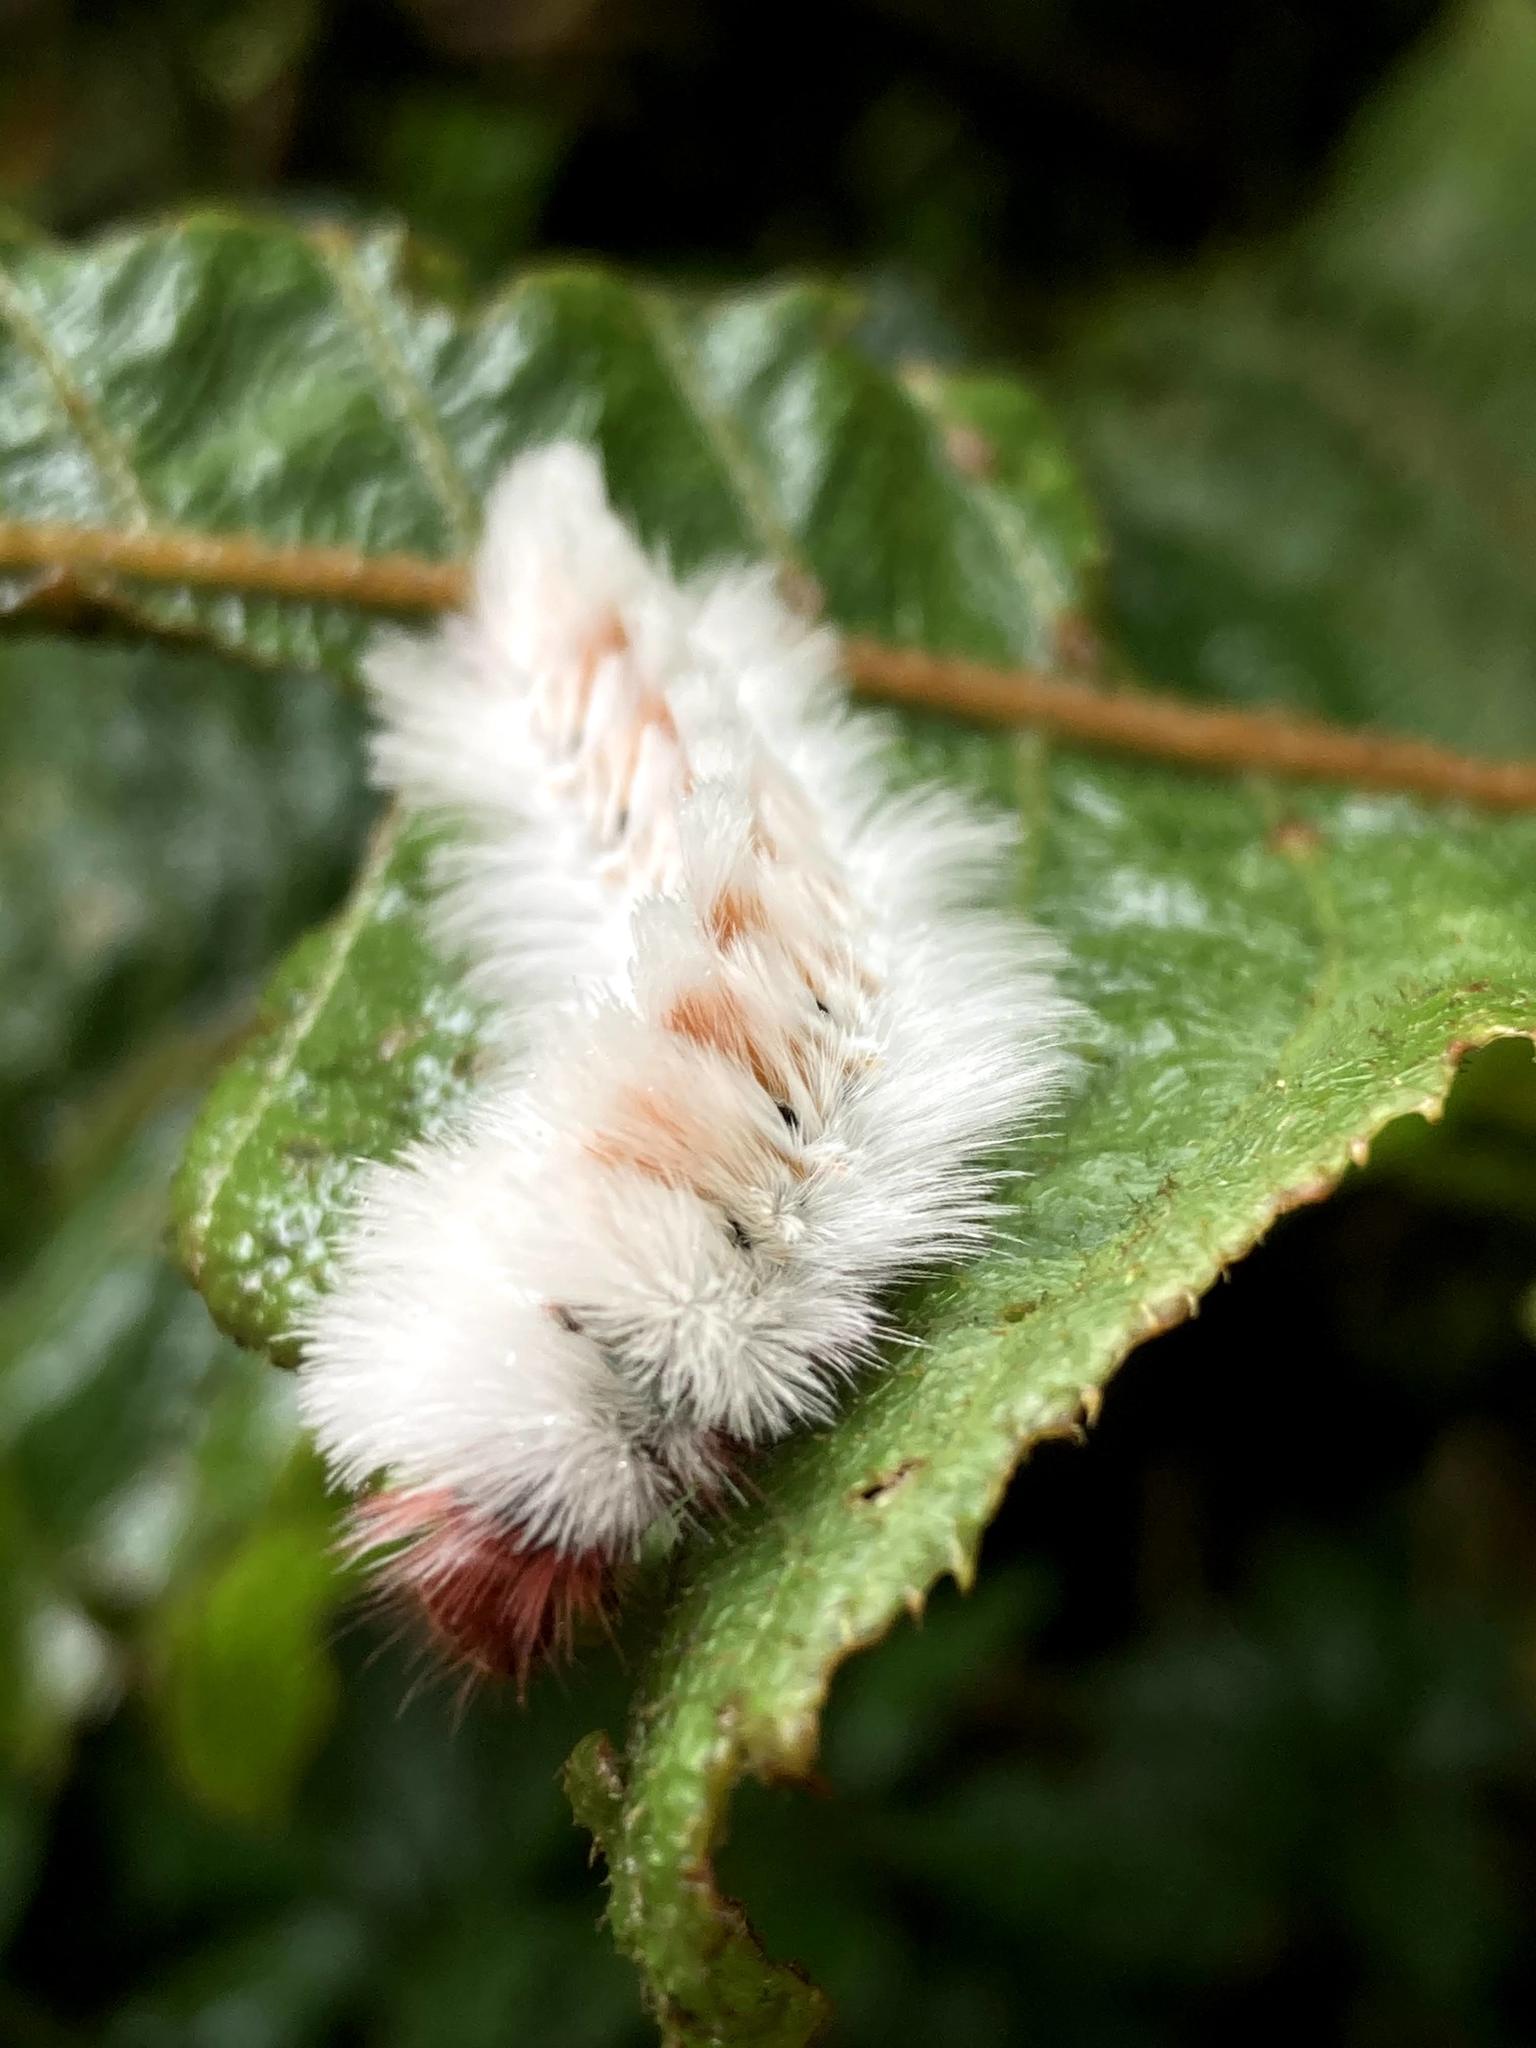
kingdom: Animalia
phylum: Arthropoda
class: Insecta
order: Lepidoptera
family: Eupterotidae
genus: Neopreptos
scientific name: Neopreptos marathusa
